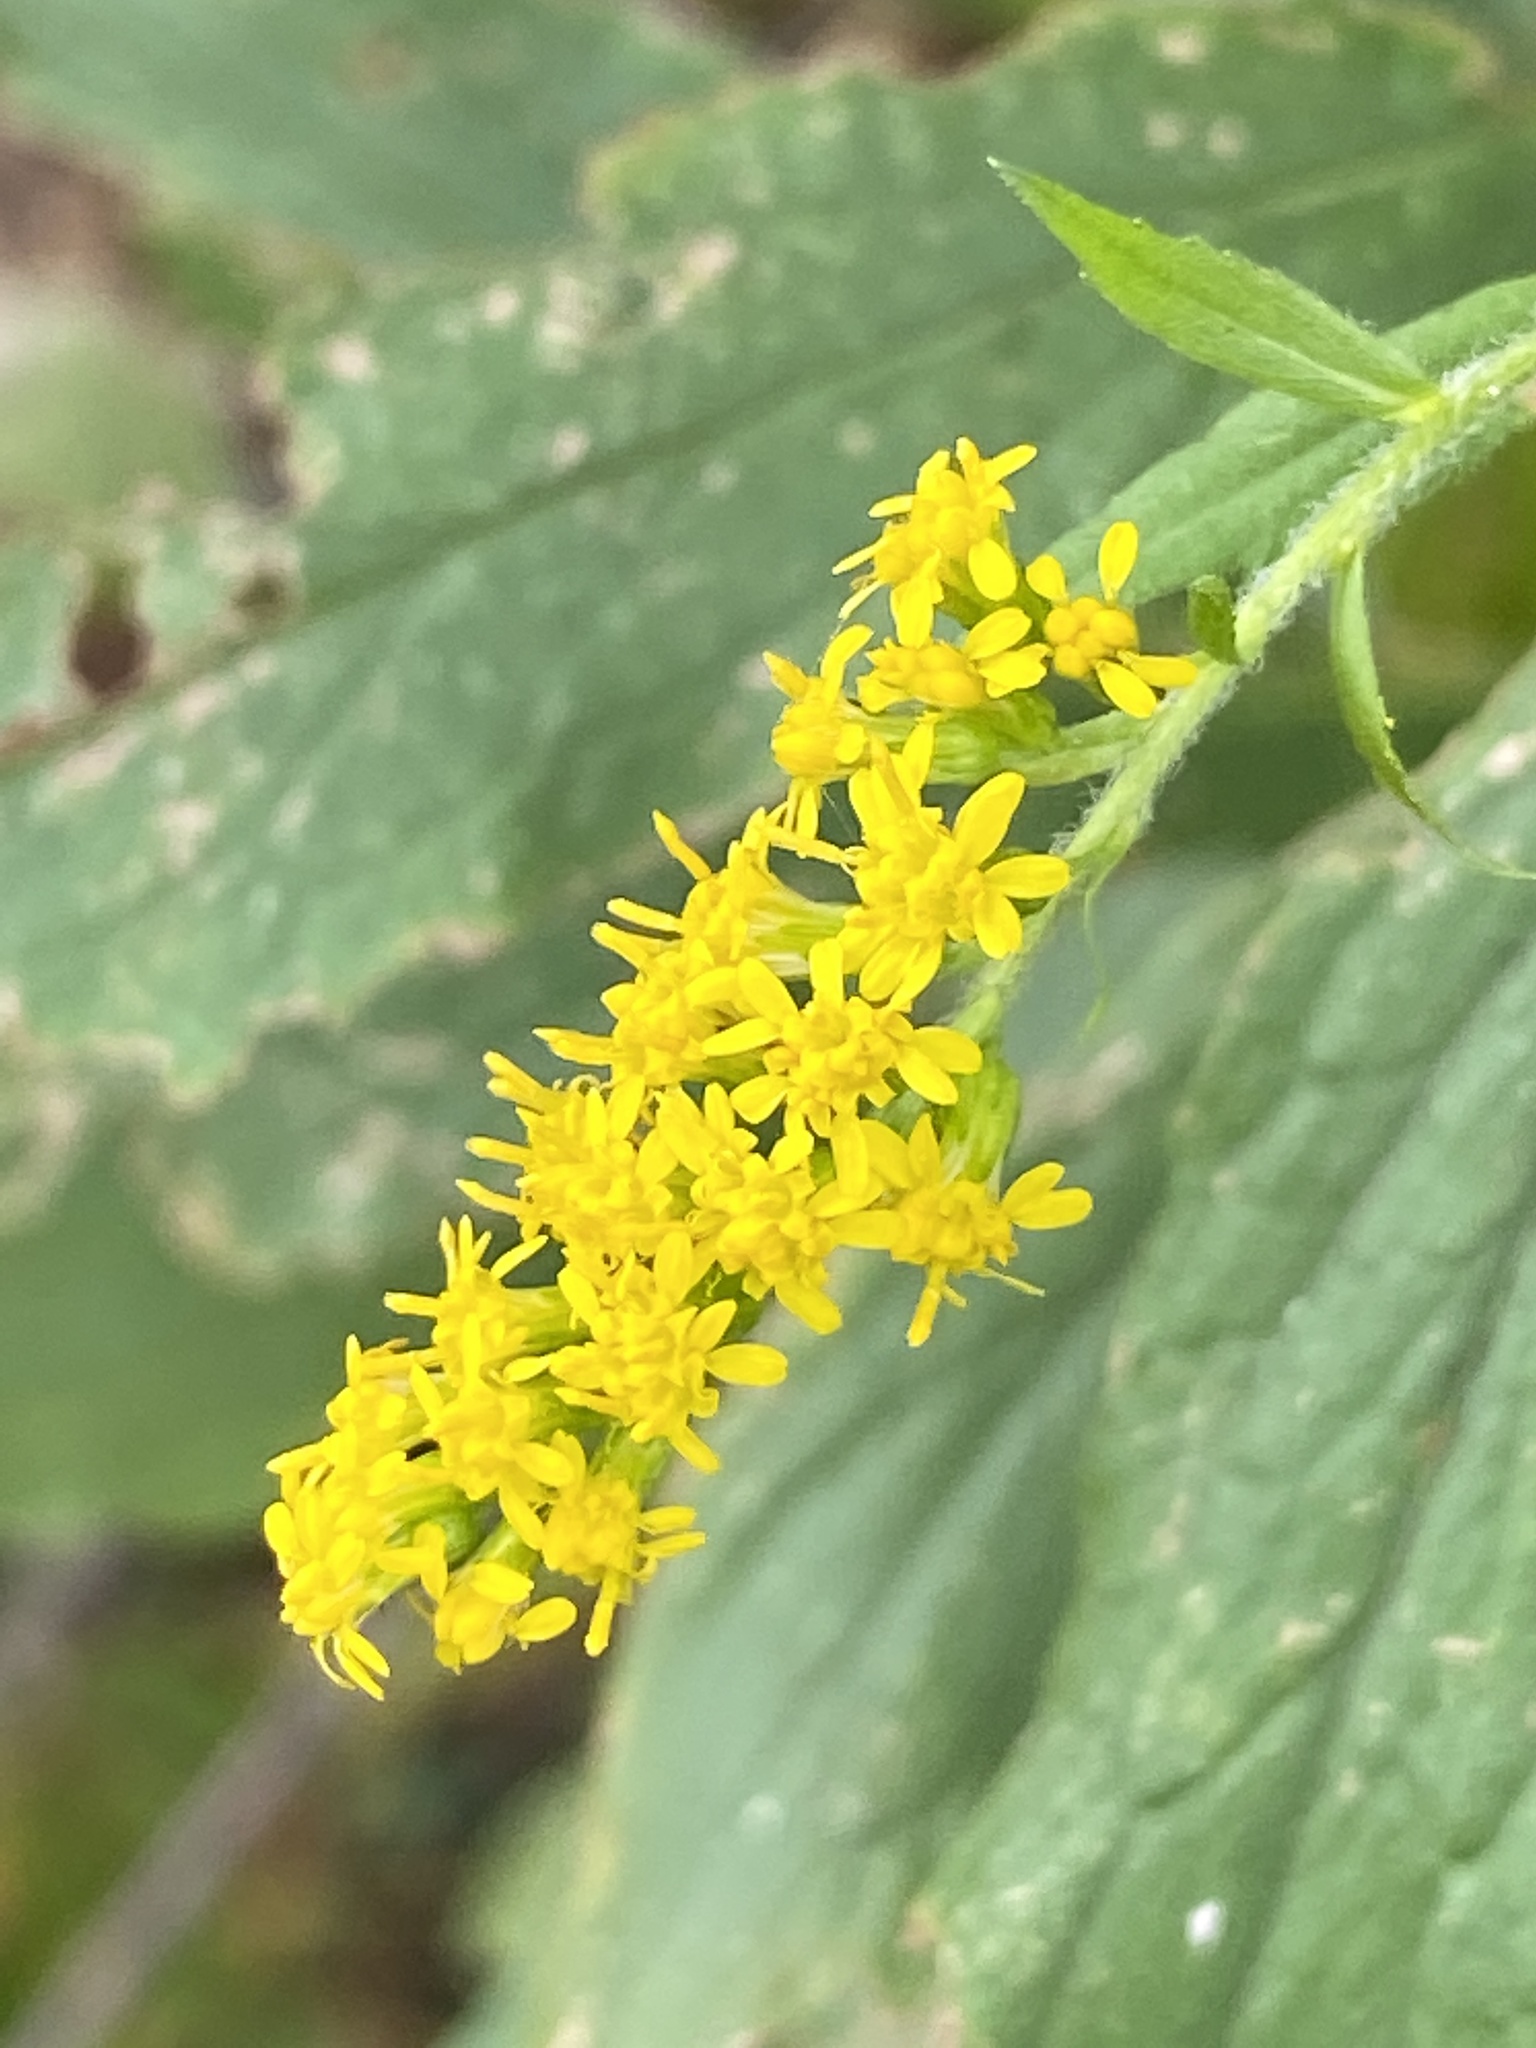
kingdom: Plantae
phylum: Tracheophyta
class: Magnoliopsida
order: Asterales
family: Asteraceae
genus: Solidago
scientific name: Solidago rugosa
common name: Rough-stemmed goldenrod
